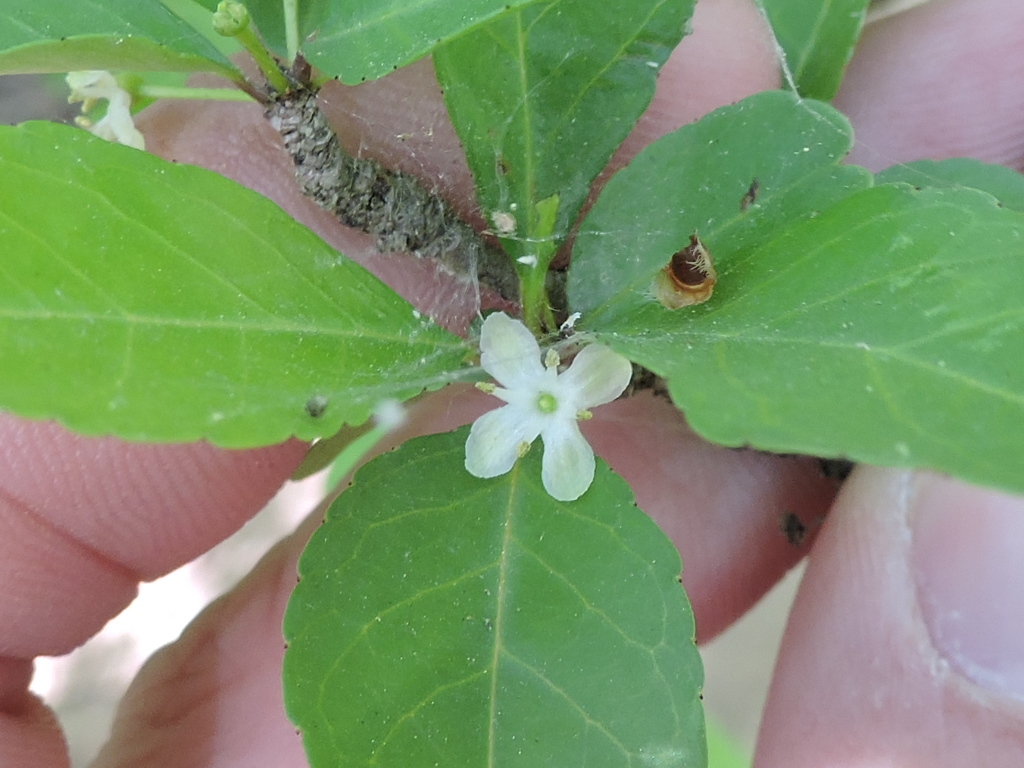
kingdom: Plantae
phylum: Tracheophyta
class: Magnoliopsida
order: Aquifoliales
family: Aquifoliaceae
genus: Ilex
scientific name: Ilex decidua
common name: Possum-haw
